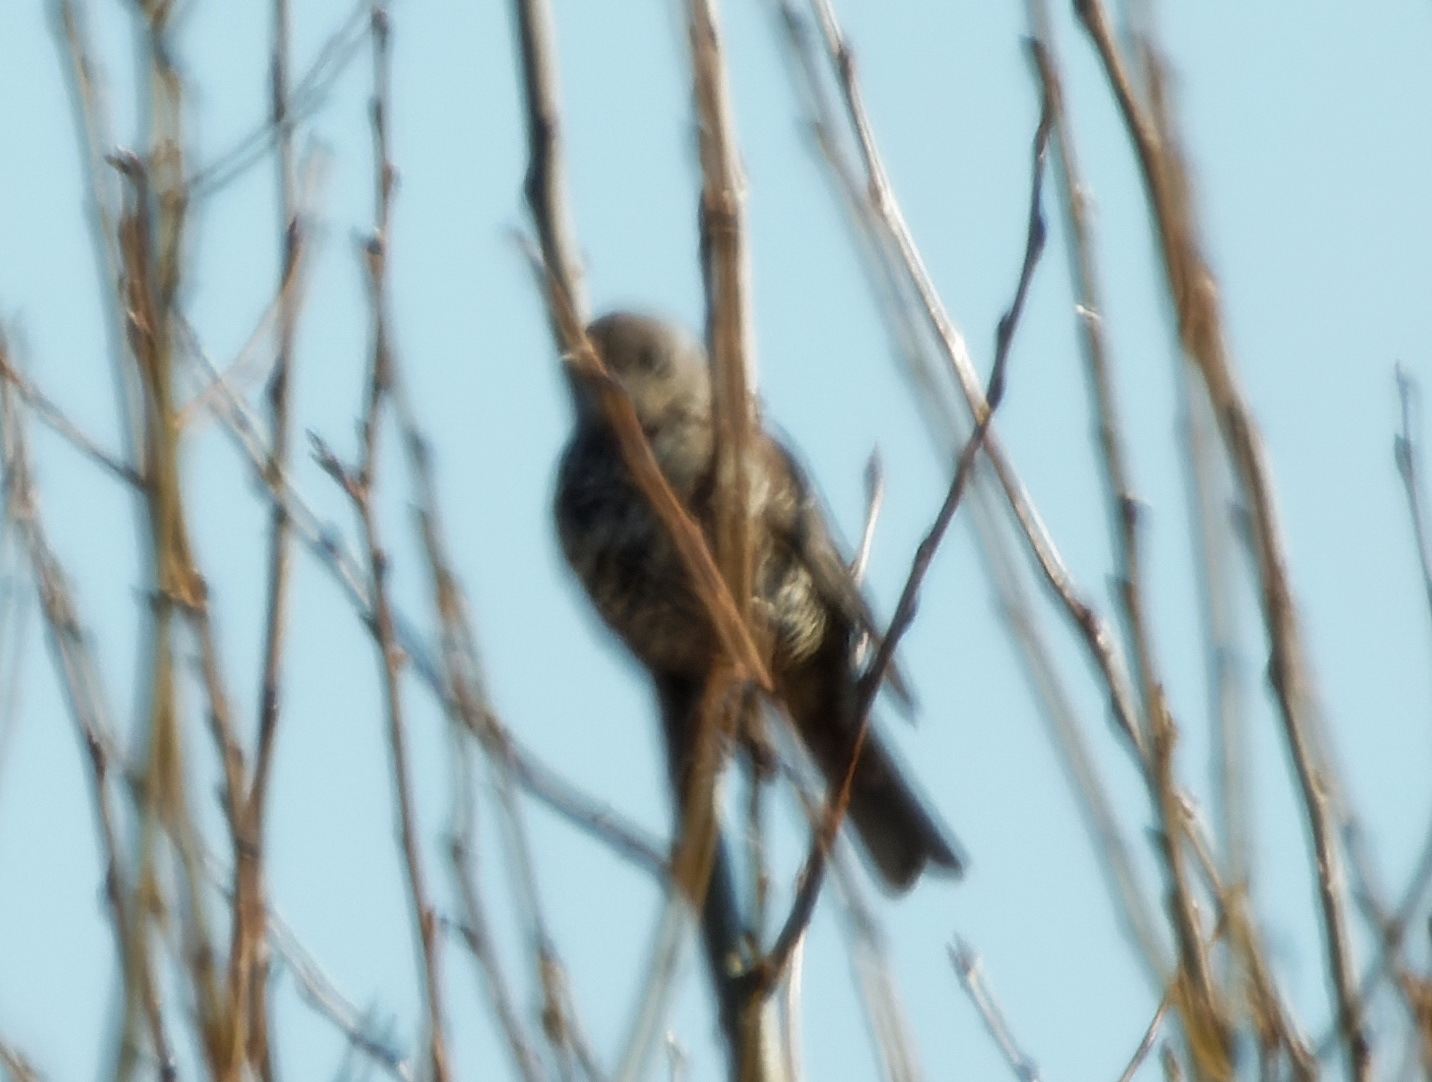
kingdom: Animalia
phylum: Chordata
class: Aves
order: Passeriformes
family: Turdidae
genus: Turdus
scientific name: Turdus viscivorus
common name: Mistle thrush
